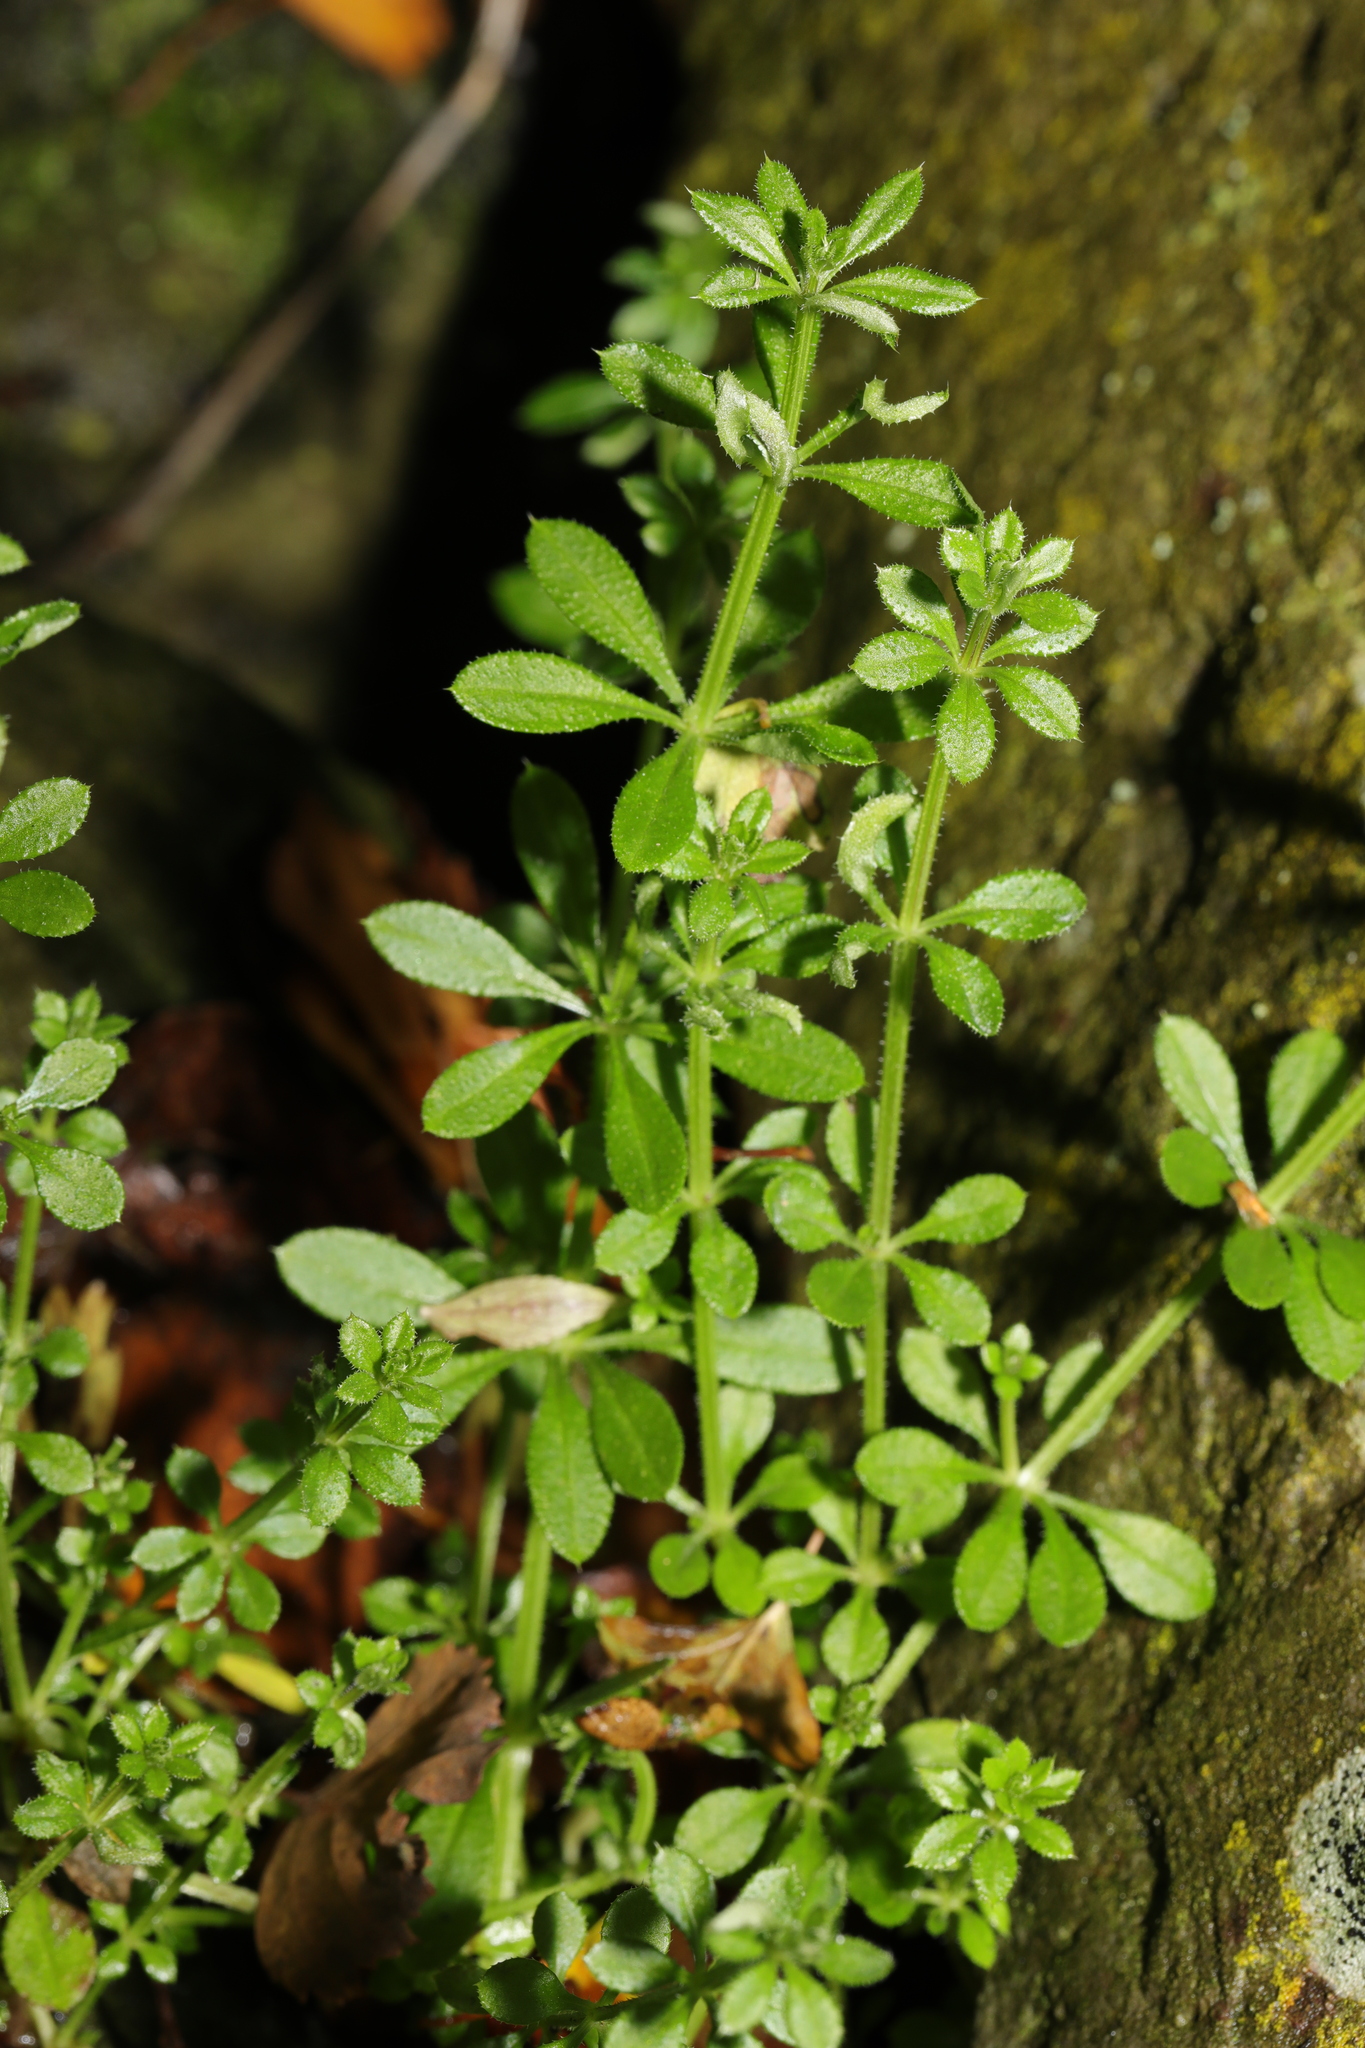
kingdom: Plantae
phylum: Tracheophyta
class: Magnoliopsida
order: Gentianales
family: Rubiaceae
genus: Galium
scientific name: Galium aparine
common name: Cleavers
